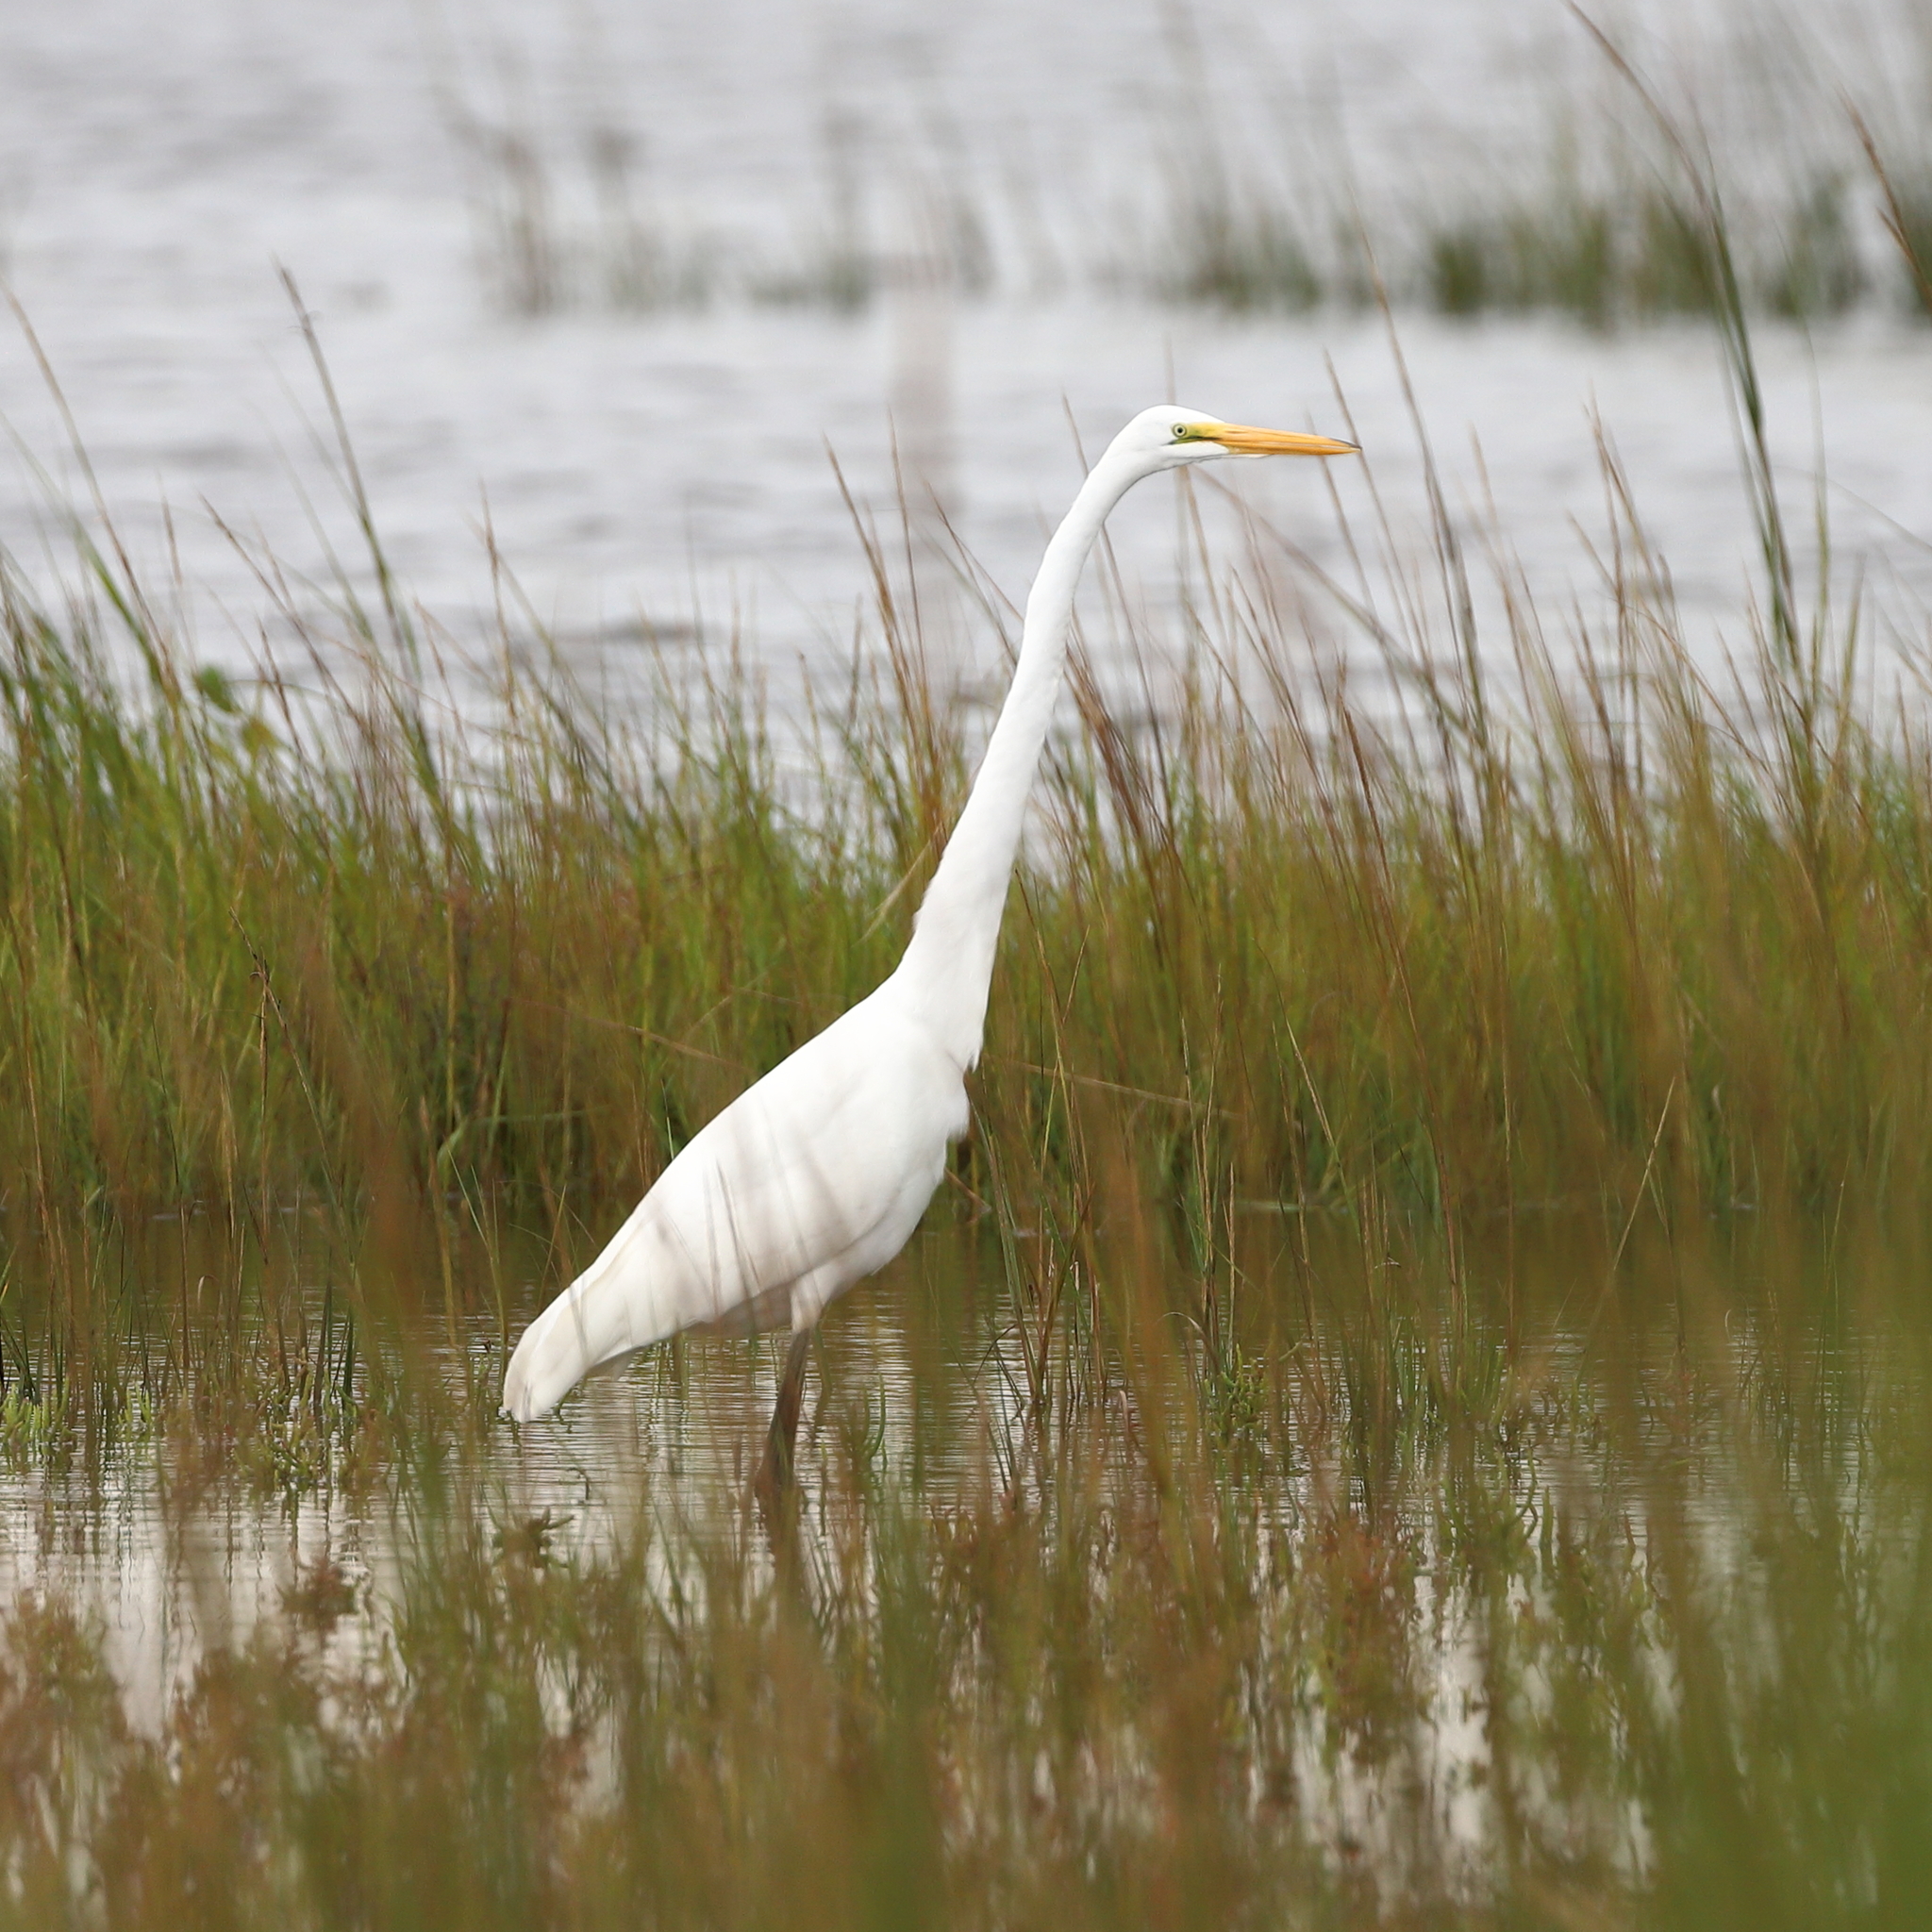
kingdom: Animalia
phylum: Chordata
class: Aves
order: Pelecaniformes
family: Ardeidae
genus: Ardea
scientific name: Ardea alba
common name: Great egret
